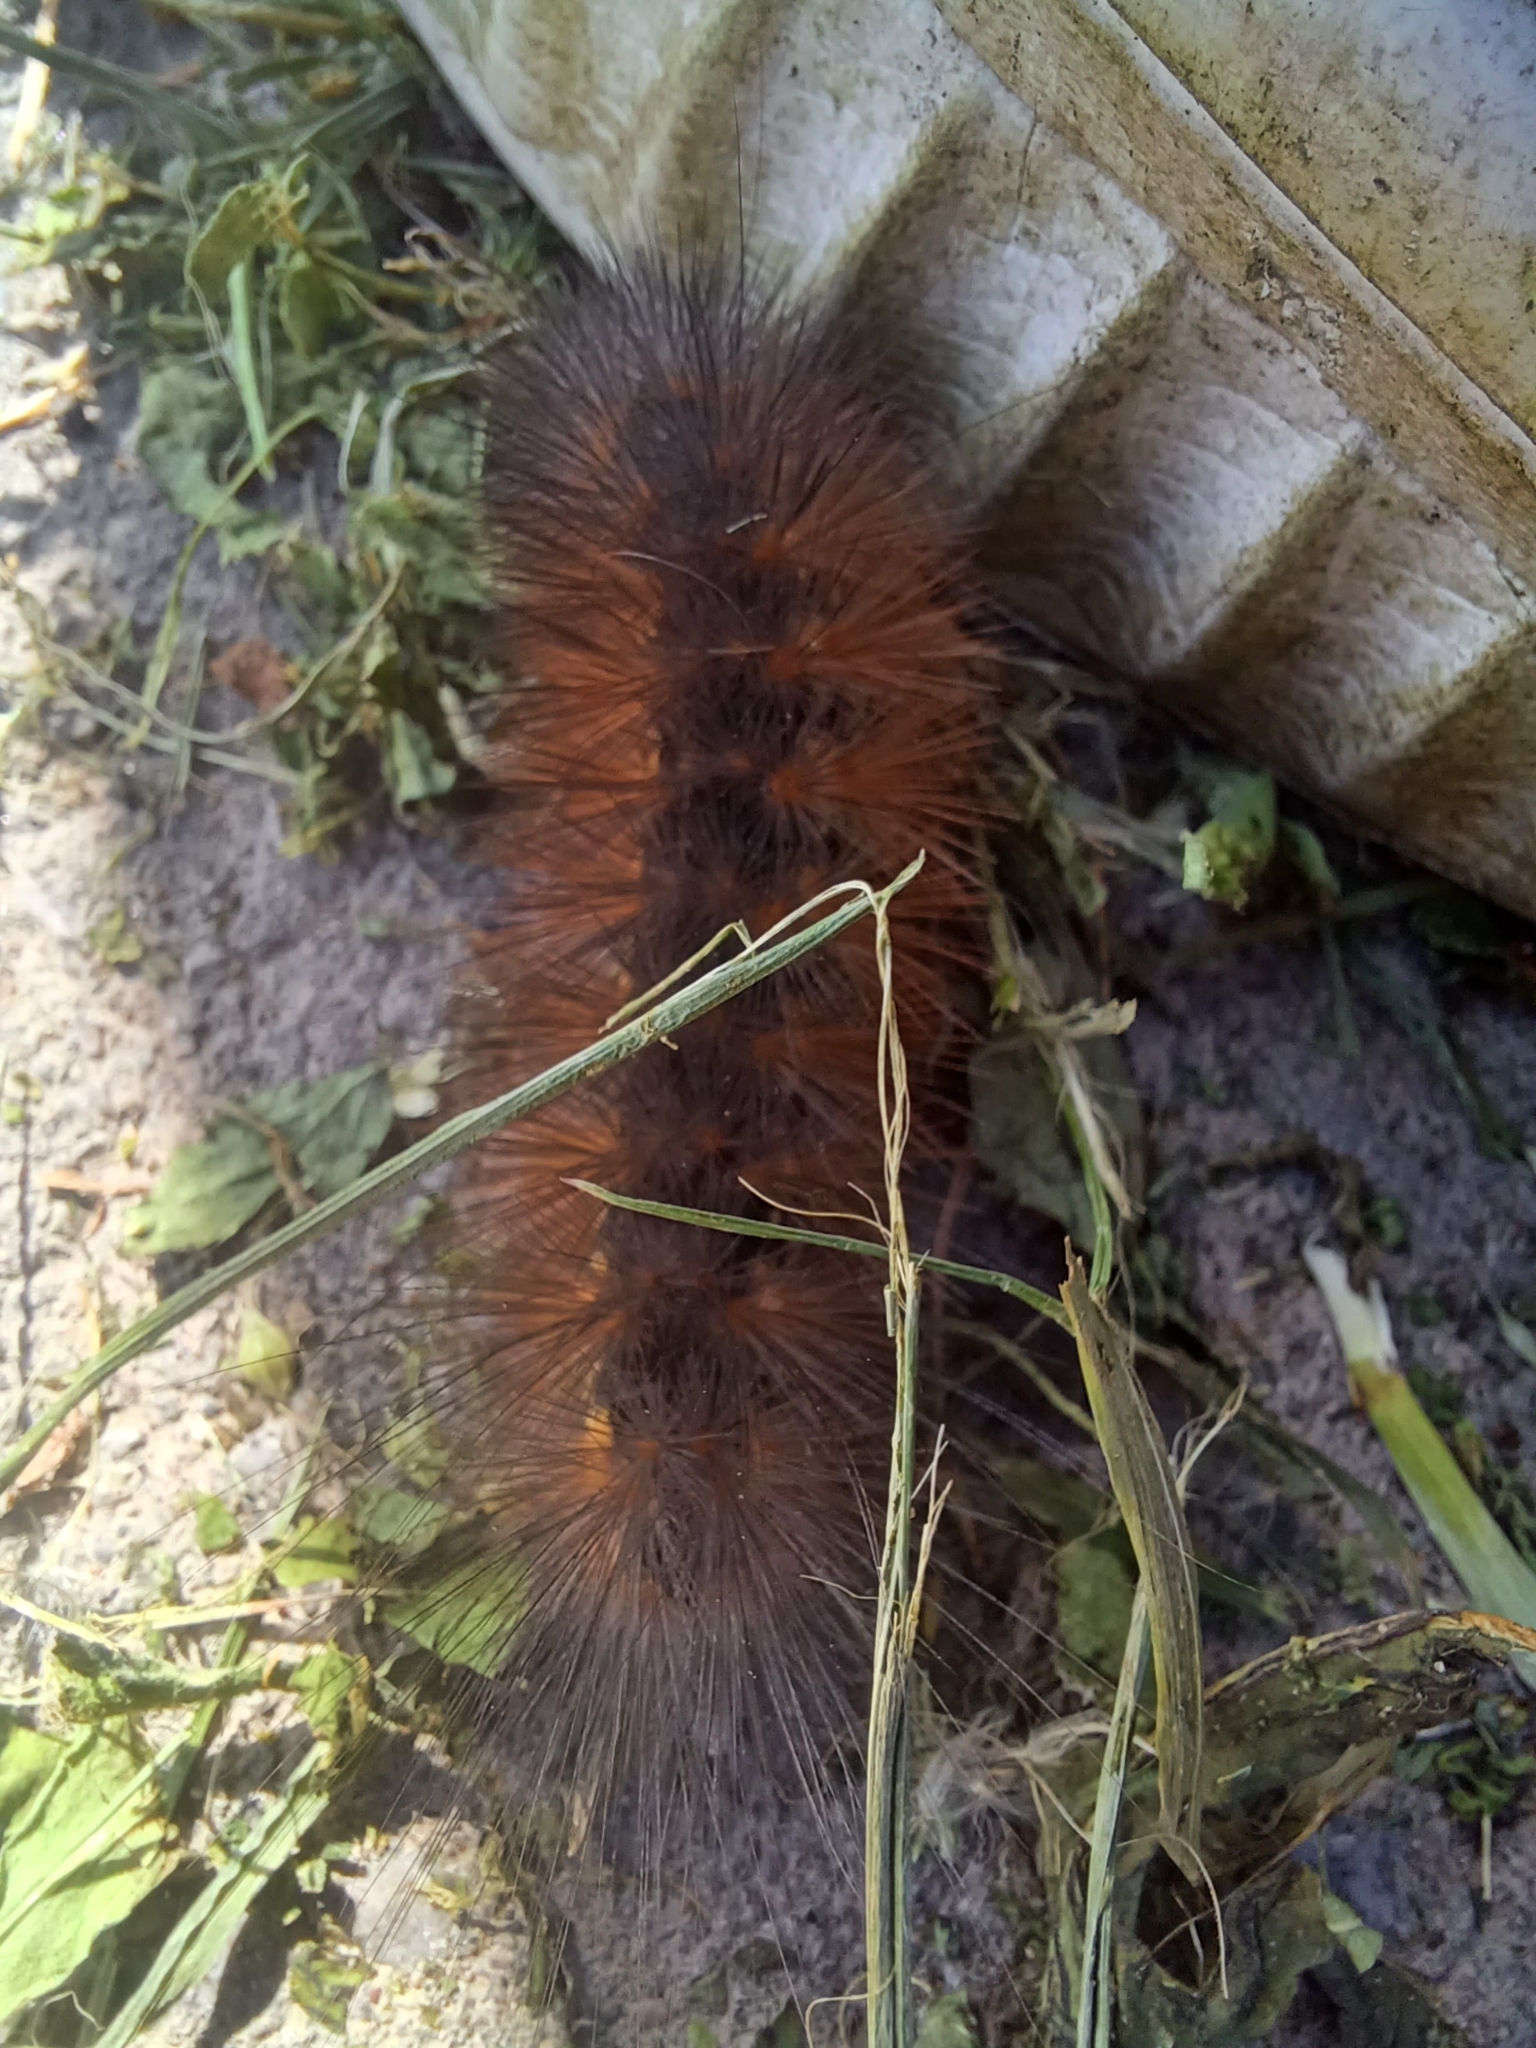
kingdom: Animalia
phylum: Arthropoda
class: Insecta
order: Lepidoptera
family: Erebidae
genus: Estigmene
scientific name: Estigmene acrea
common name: Salt marsh moth
